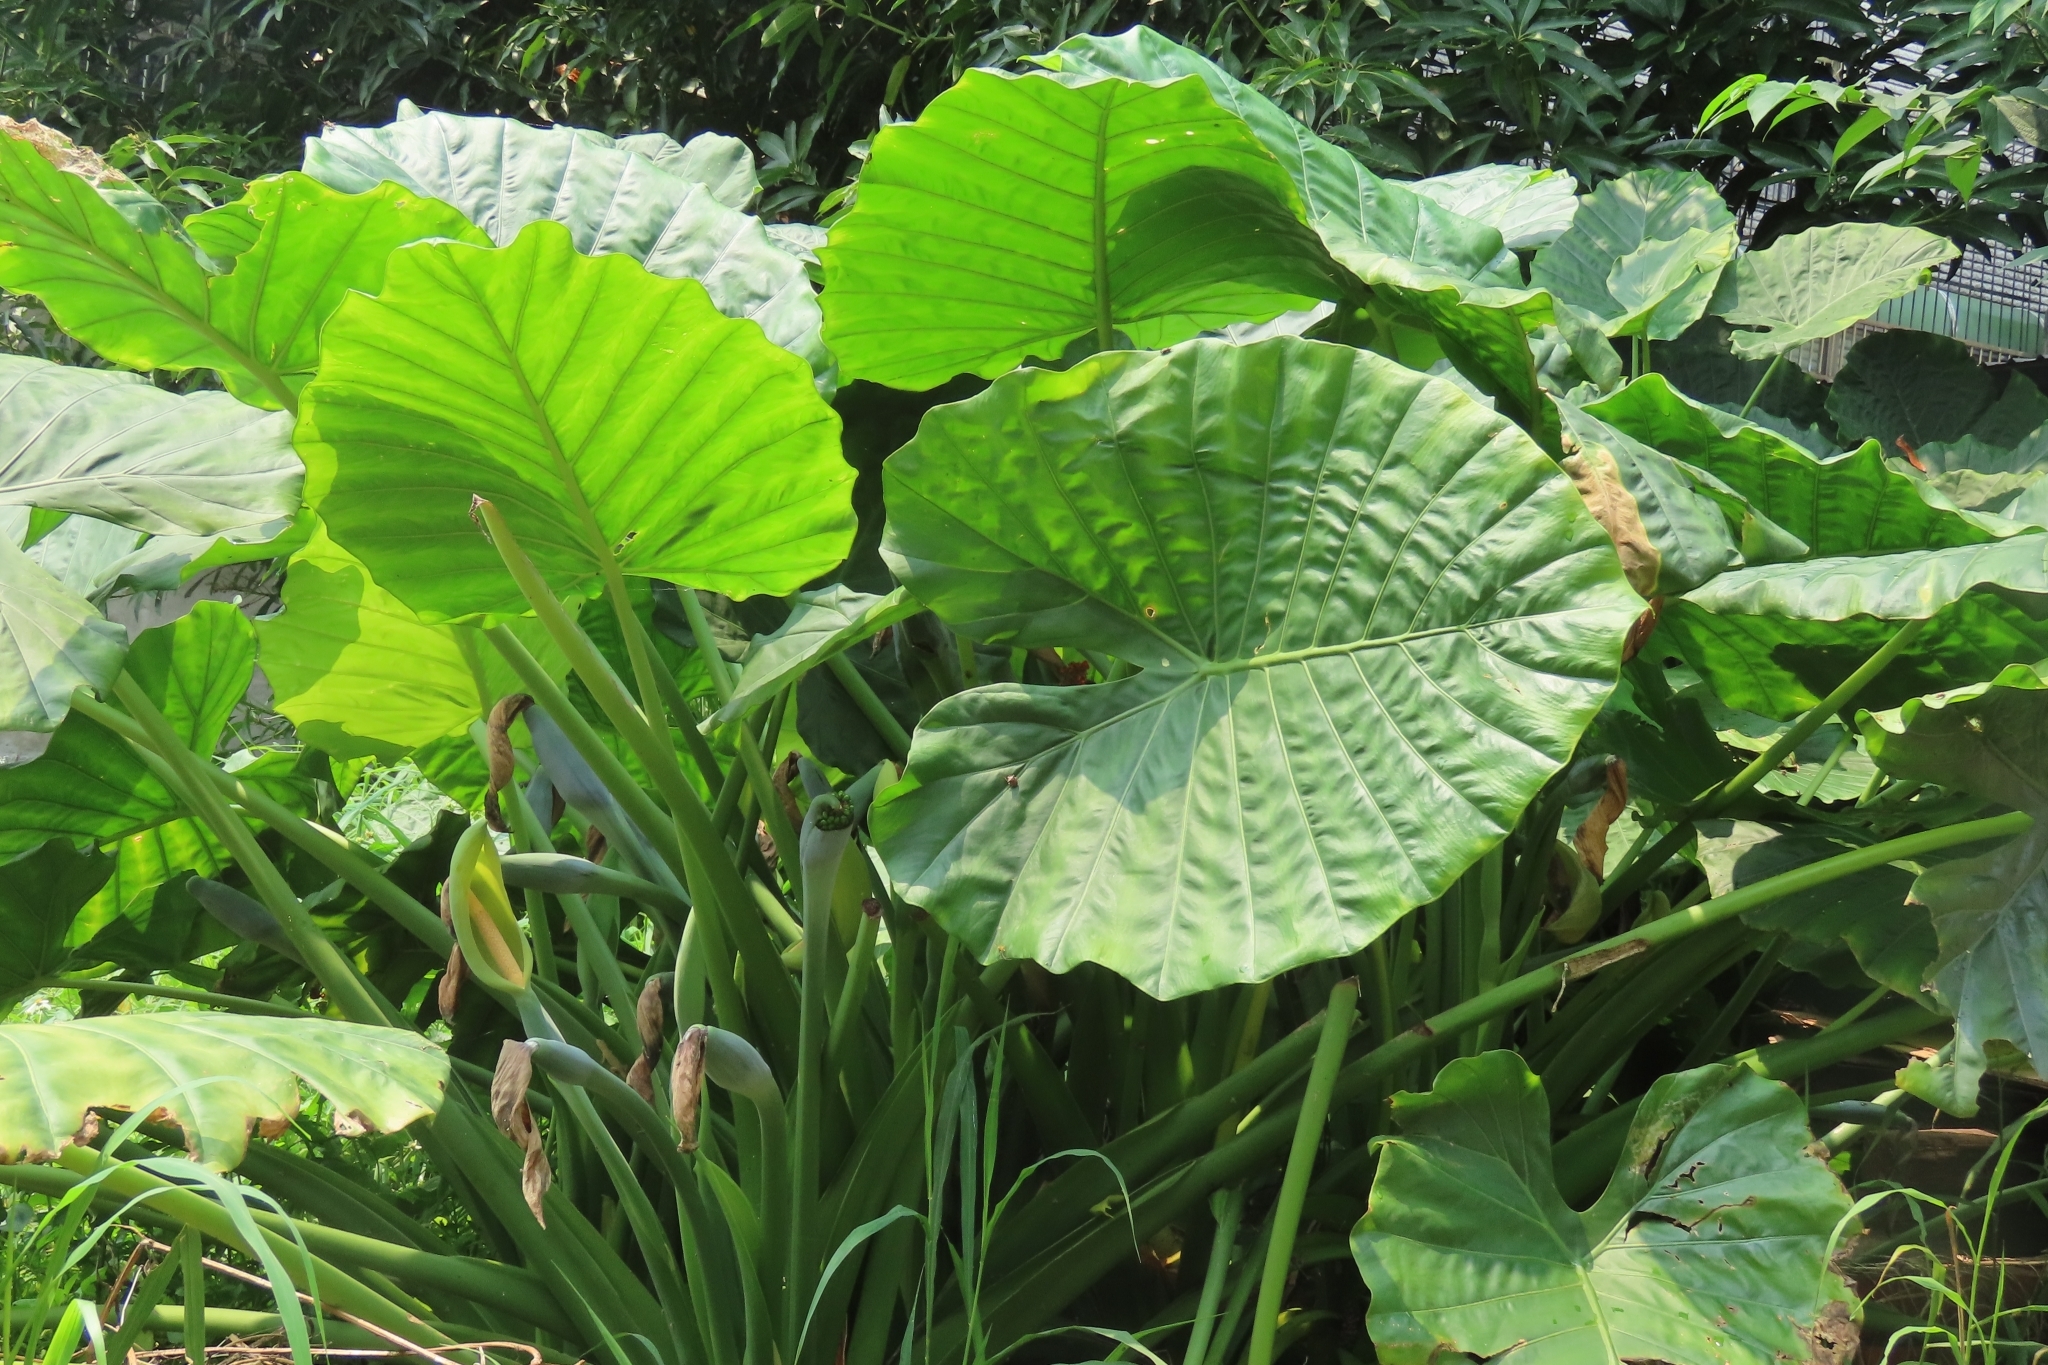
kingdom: Plantae
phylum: Tracheophyta
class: Liliopsida
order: Alismatales
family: Araceae
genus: Alocasia
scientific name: Alocasia odora
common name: Asian taro
